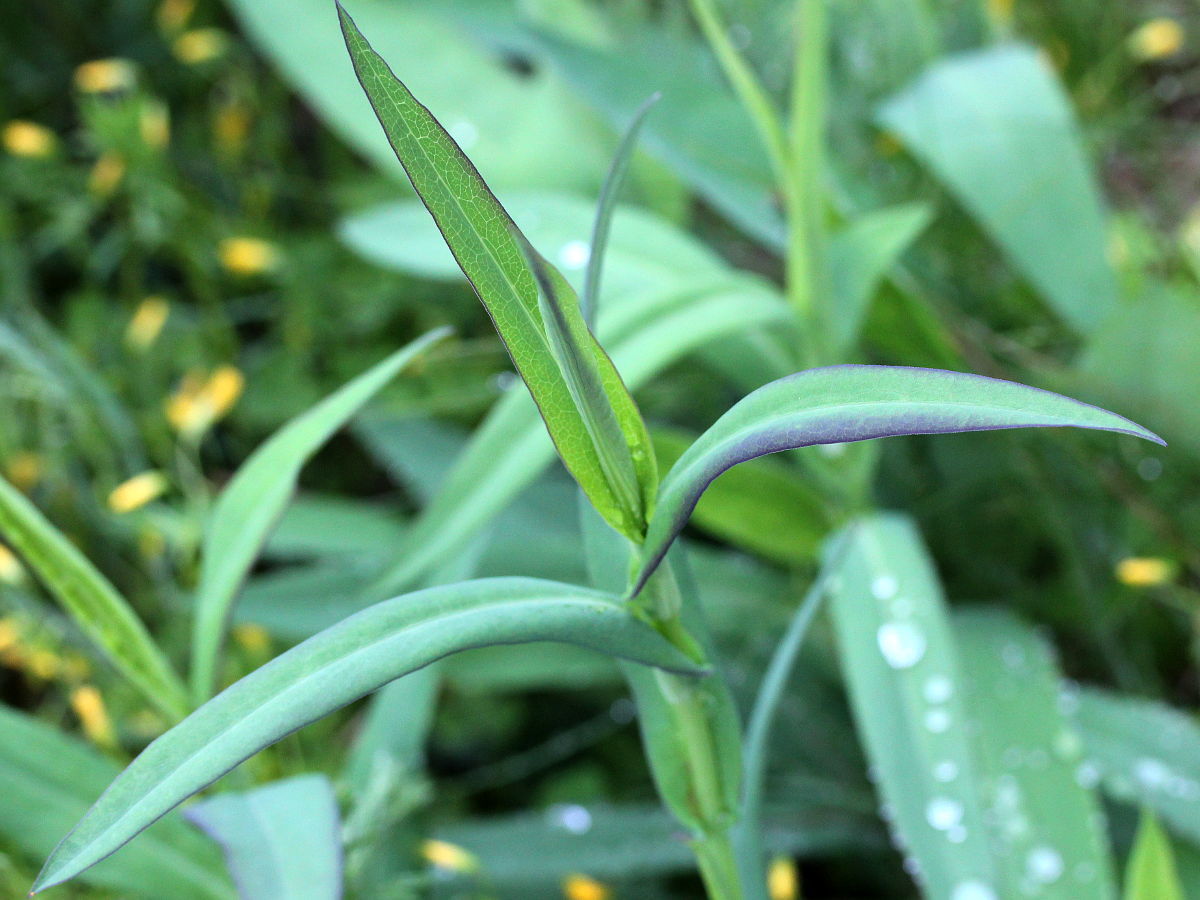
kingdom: Plantae
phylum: Tracheophyta
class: Magnoliopsida
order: Asterales
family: Asteraceae
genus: Symphyotrichum
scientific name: Symphyotrichum laeve
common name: Glaucous aster
